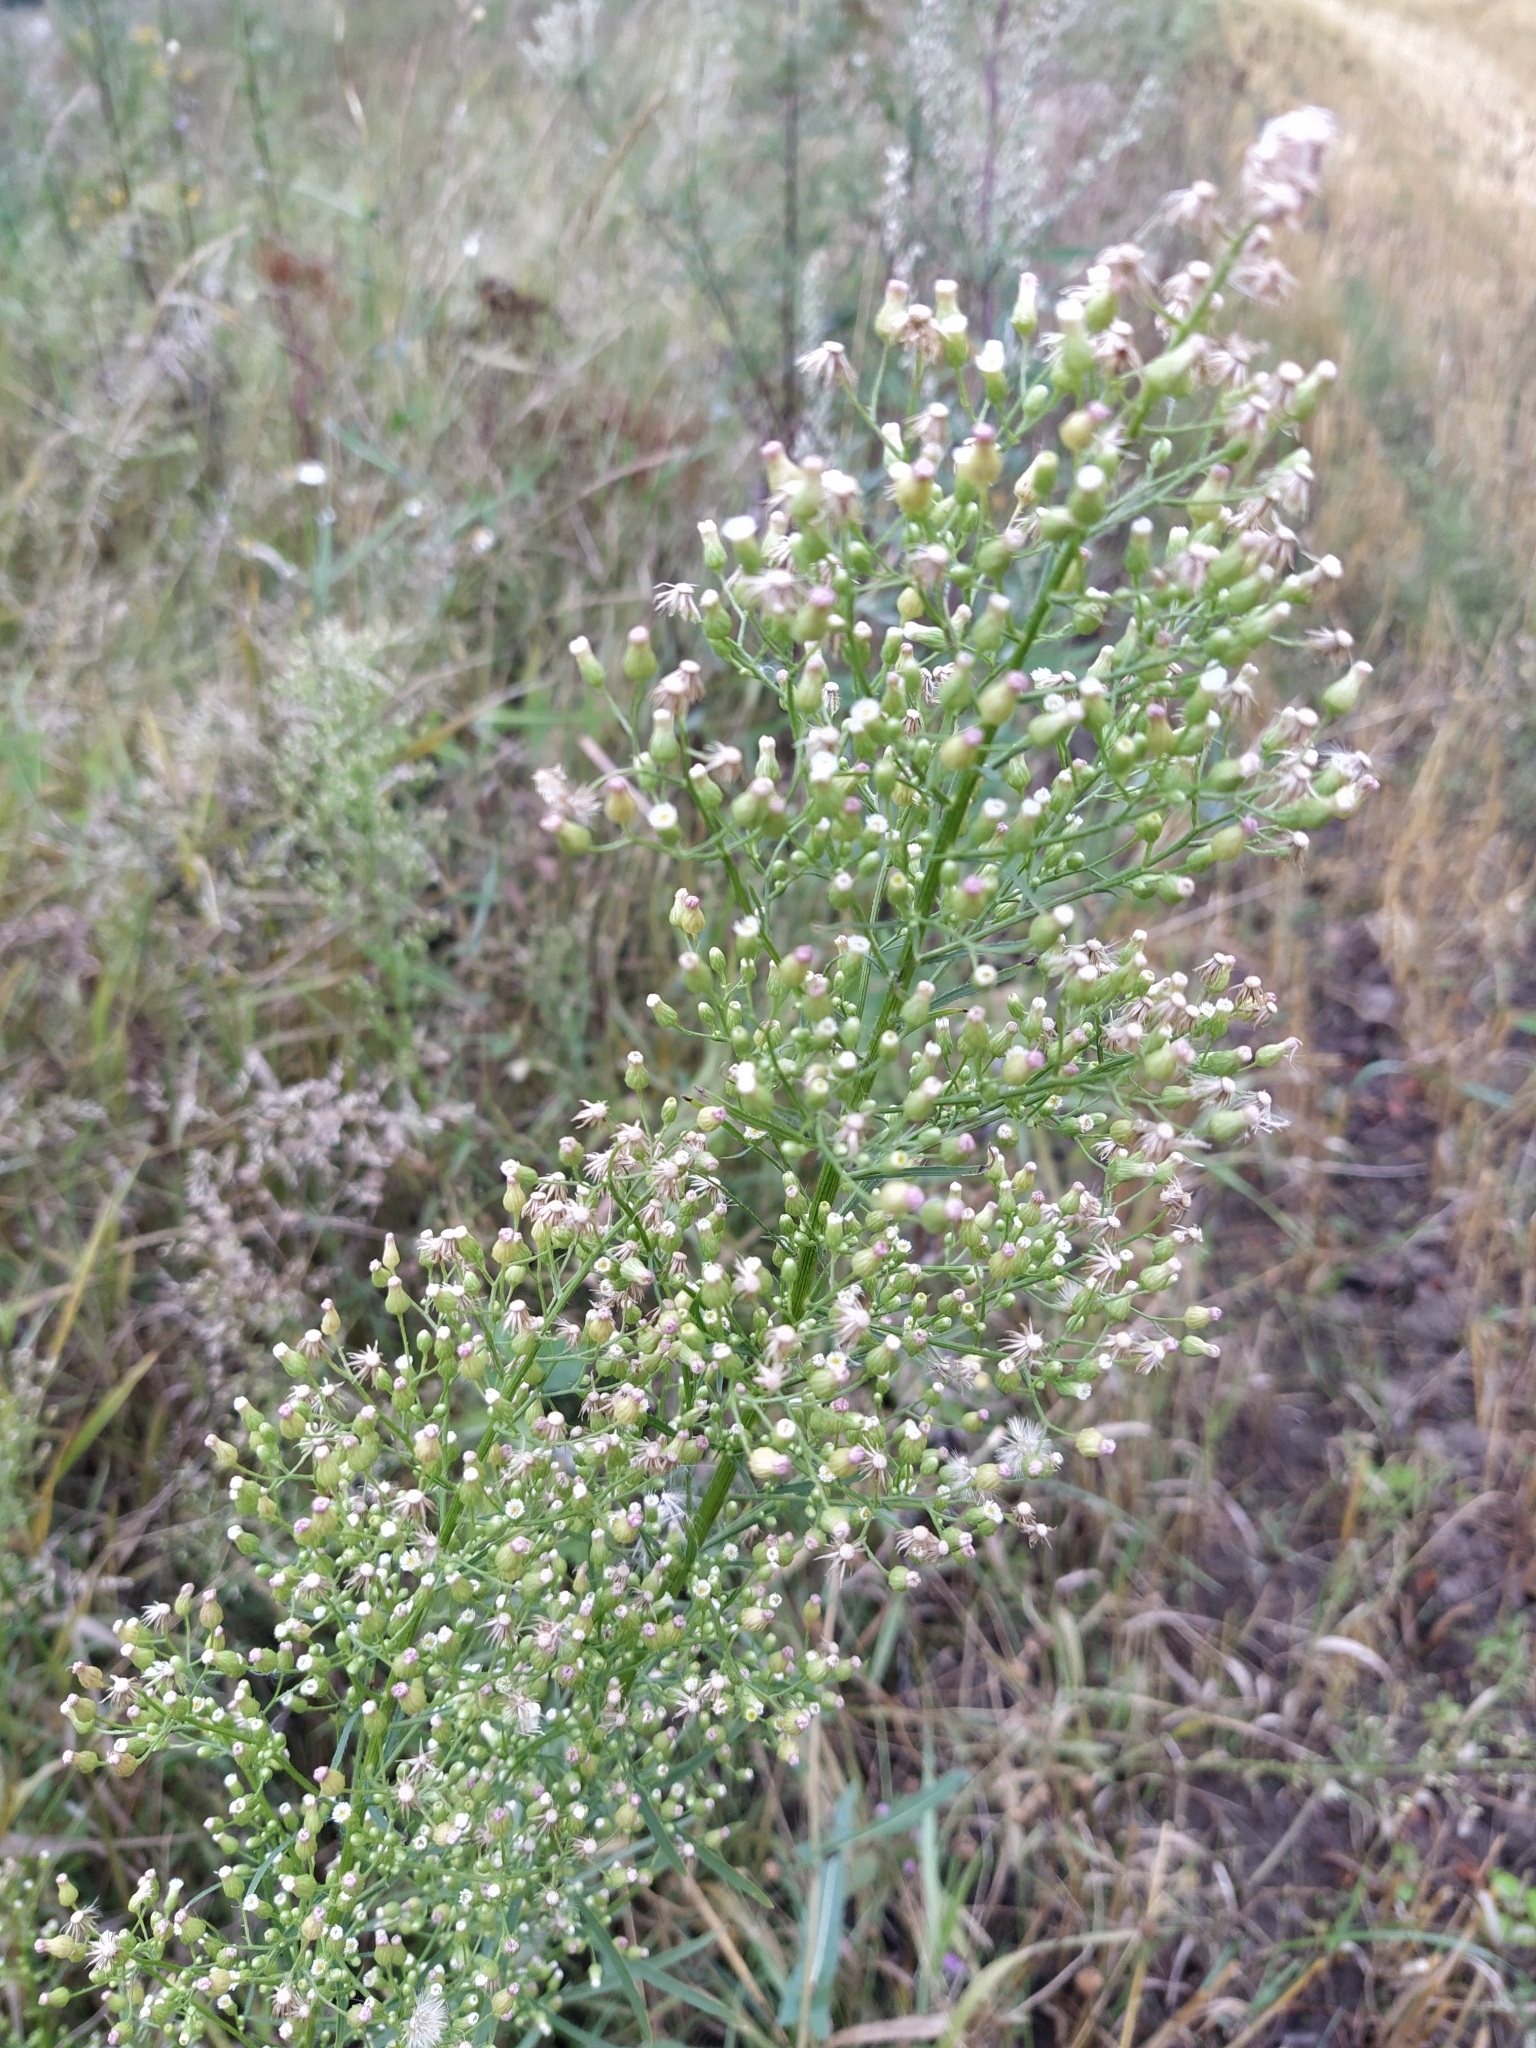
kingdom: Plantae
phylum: Tracheophyta
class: Magnoliopsida
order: Asterales
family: Asteraceae
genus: Erigeron
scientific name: Erigeron canadensis
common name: Canadian fleabane
